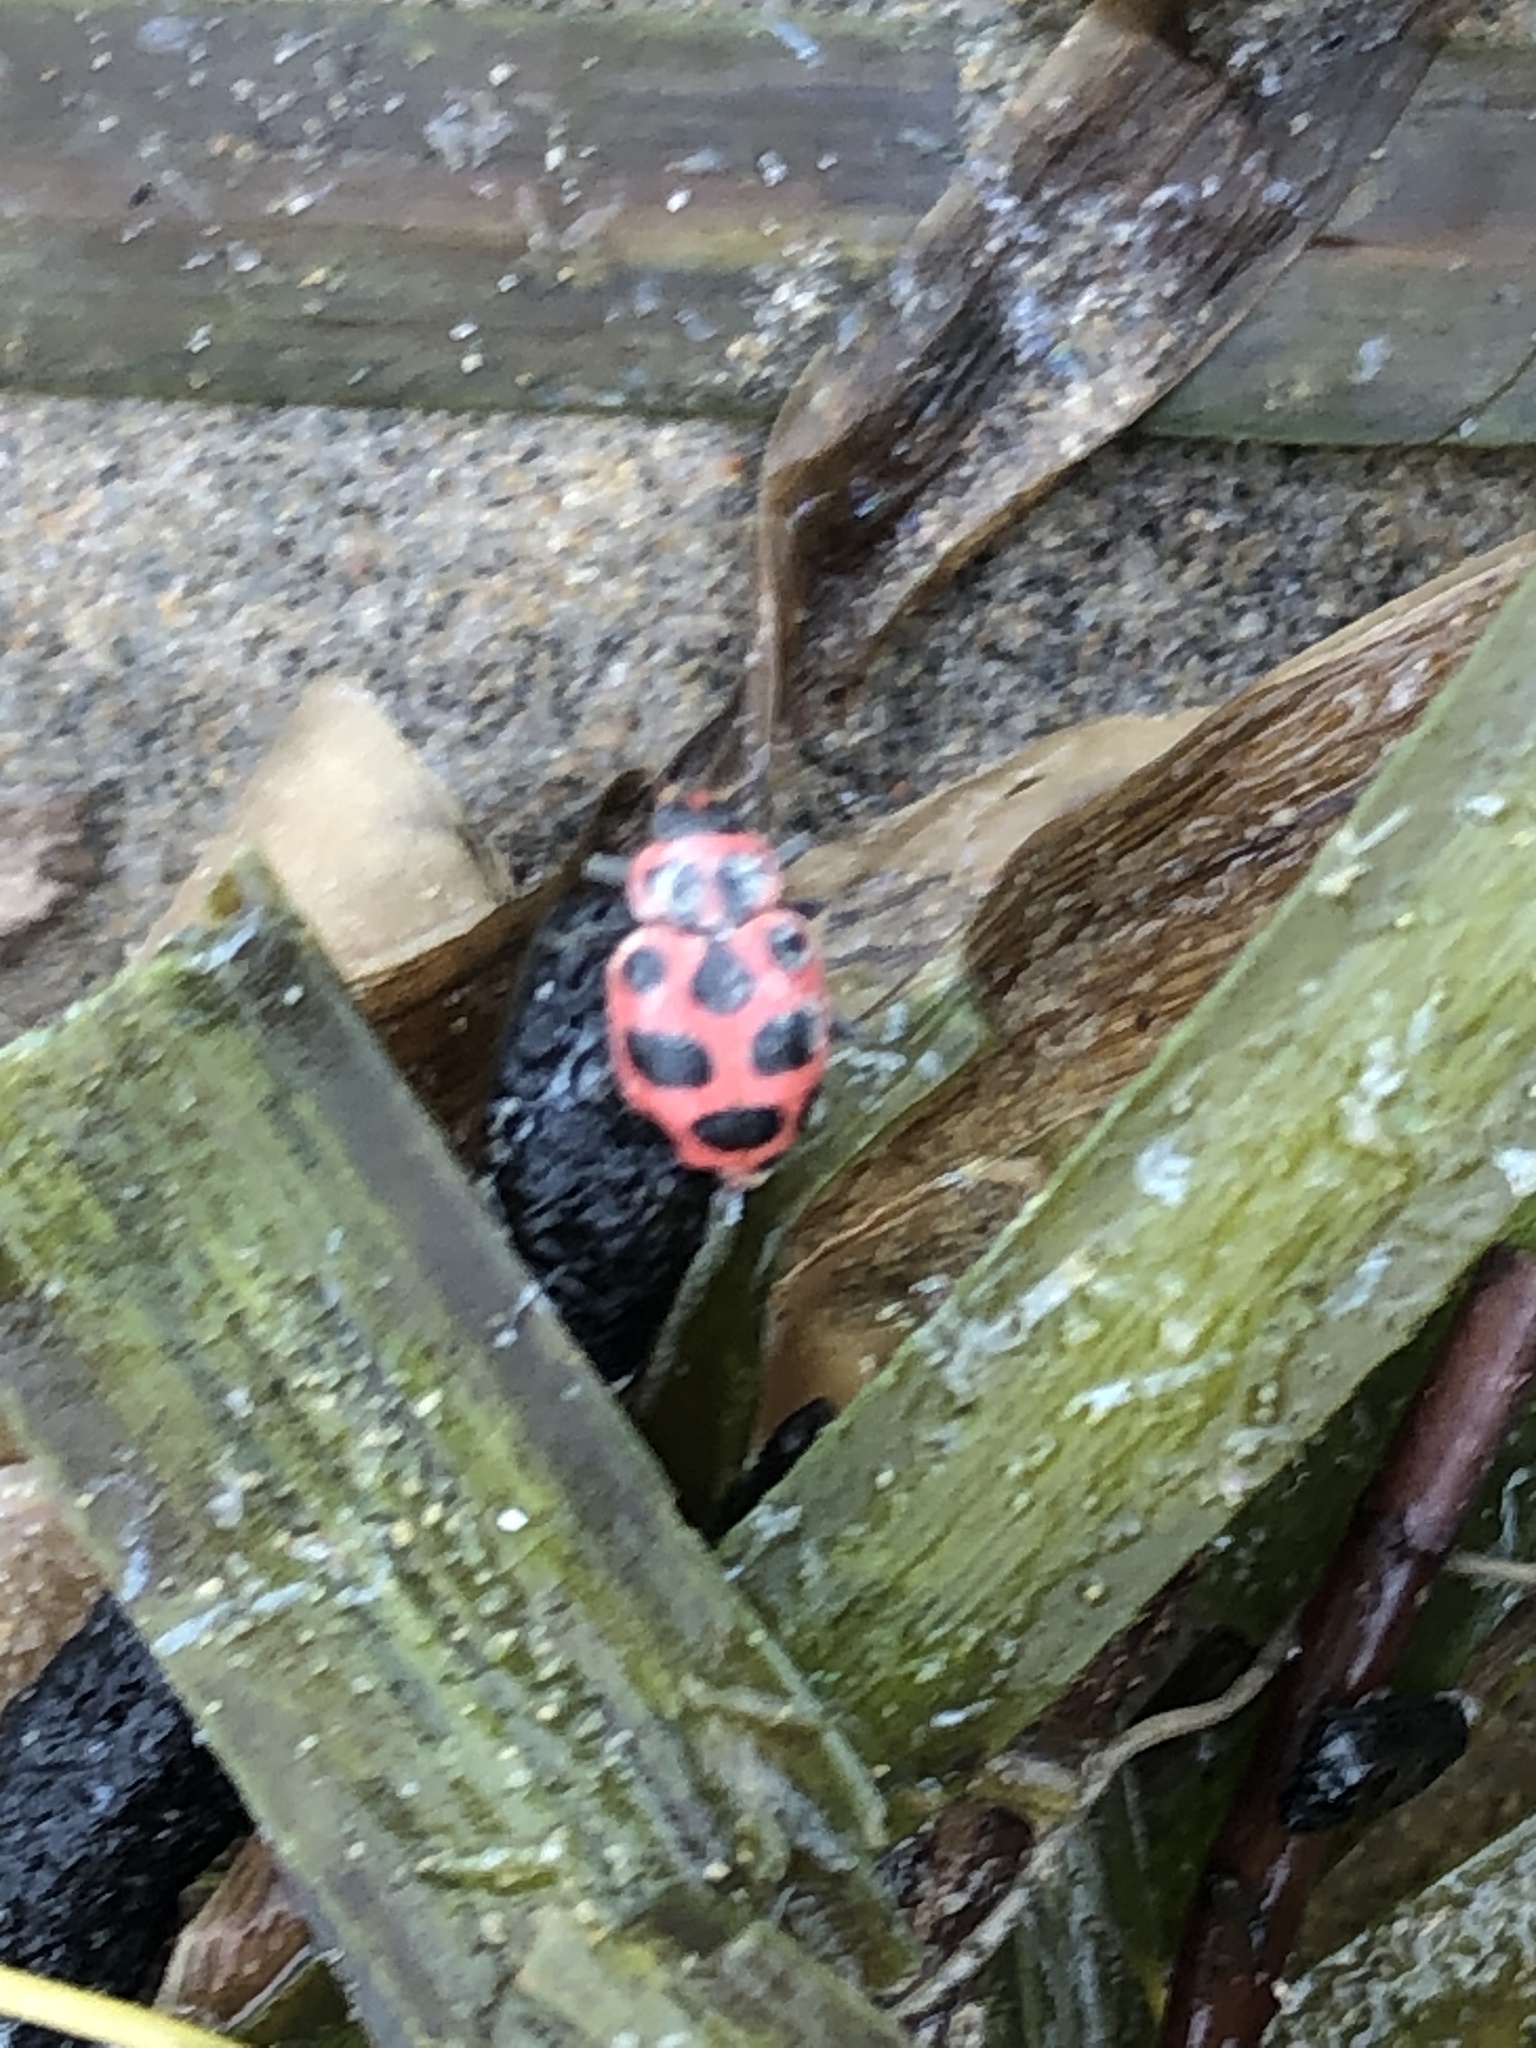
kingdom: Animalia
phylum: Arthropoda
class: Insecta
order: Coleoptera
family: Coccinellidae
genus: Coleomegilla
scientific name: Coleomegilla maculata
